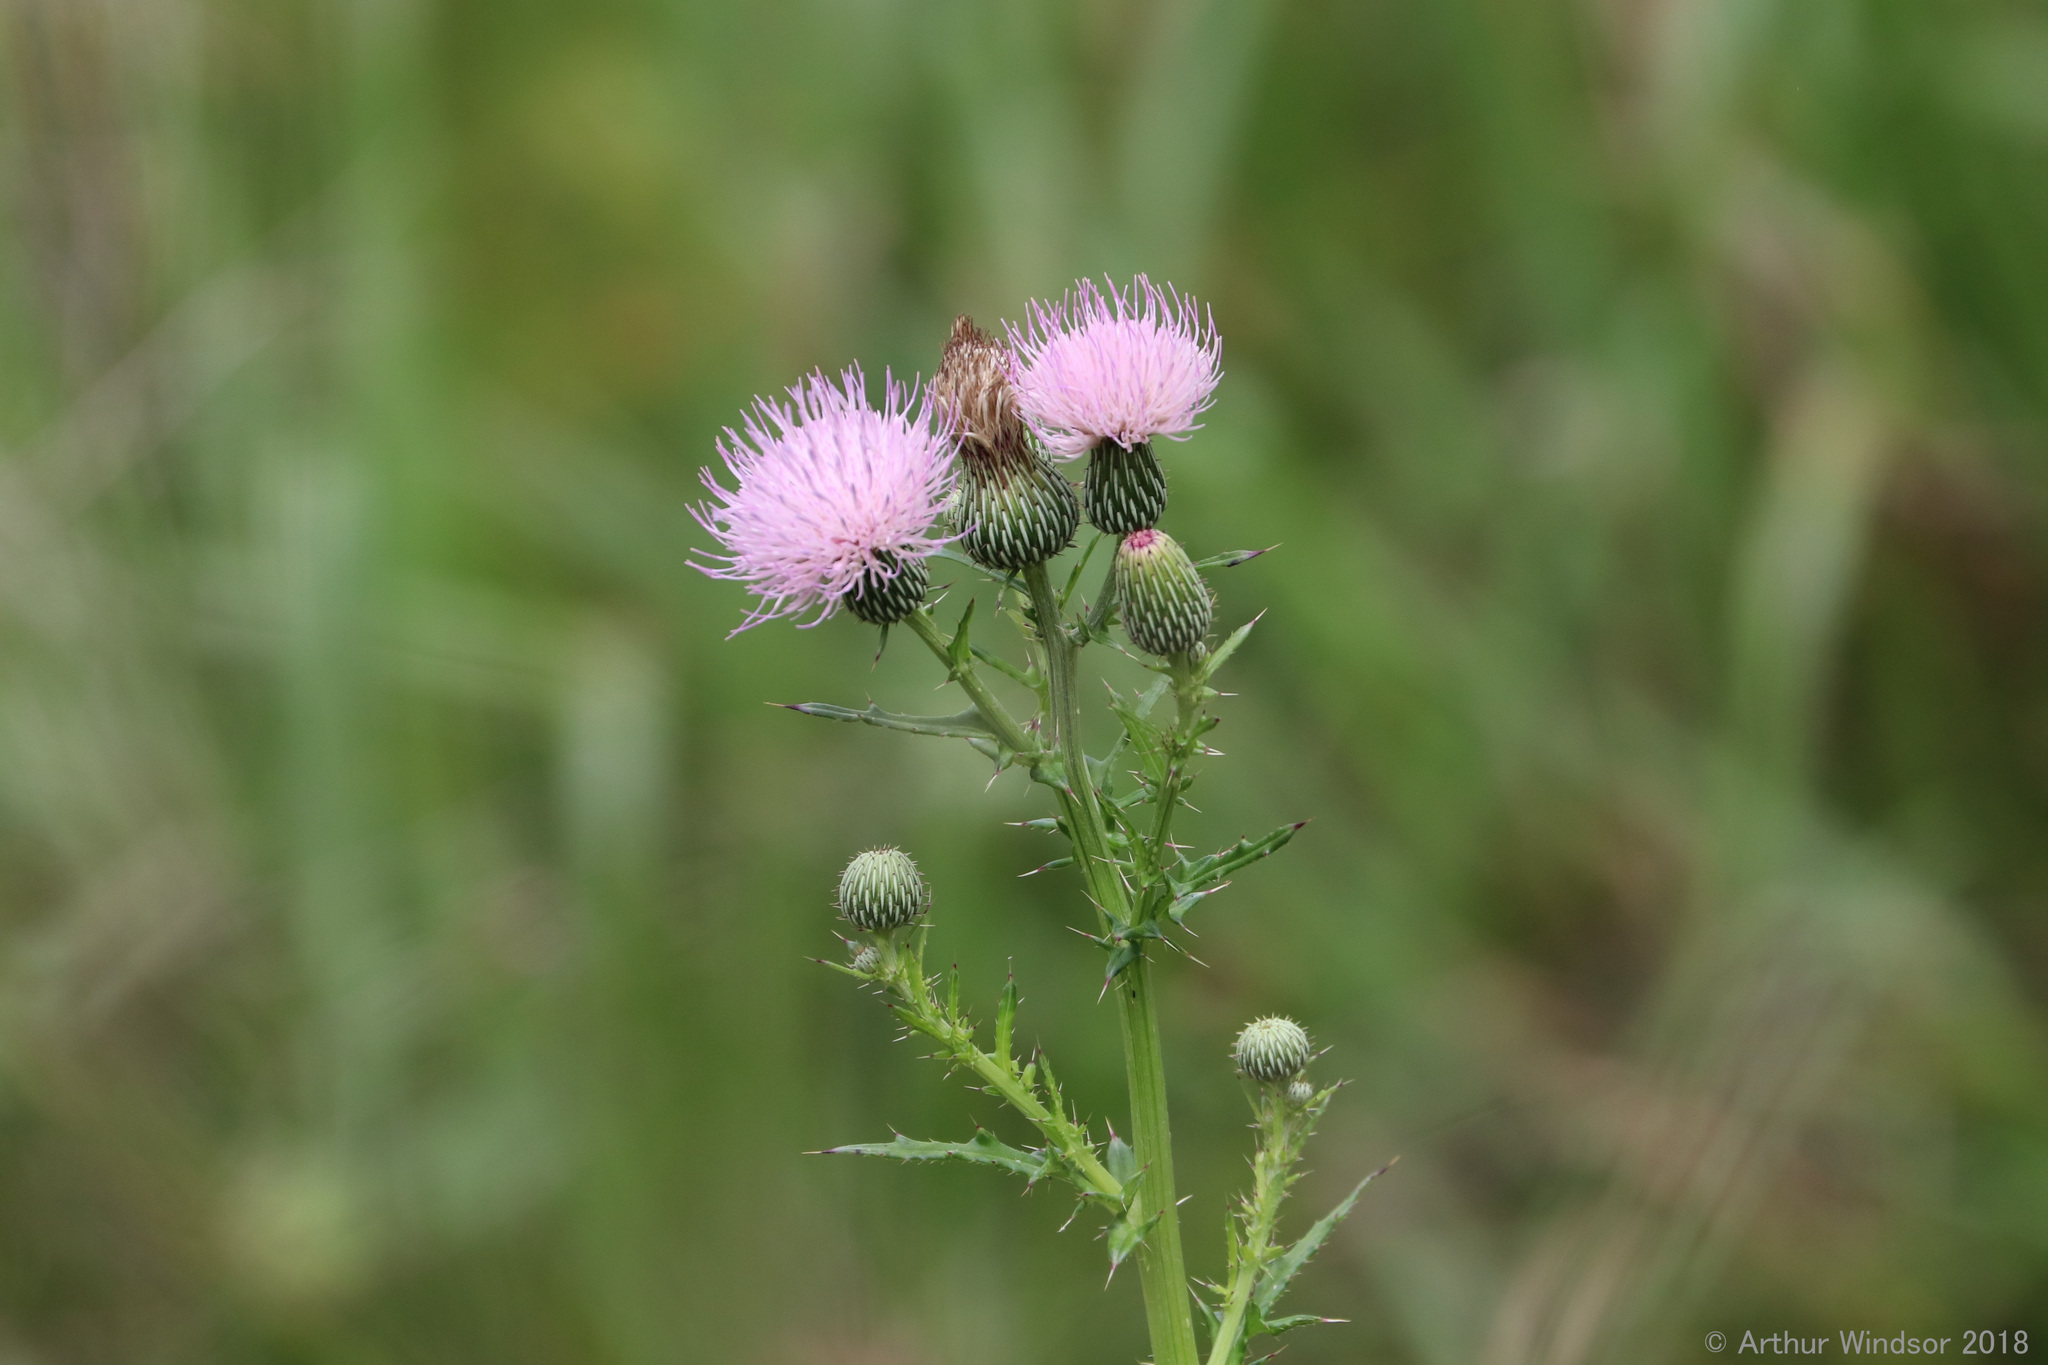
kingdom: Plantae
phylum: Tracheophyta
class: Magnoliopsida
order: Asterales
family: Asteraceae
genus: Cirsium
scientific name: Cirsium nuttalii
